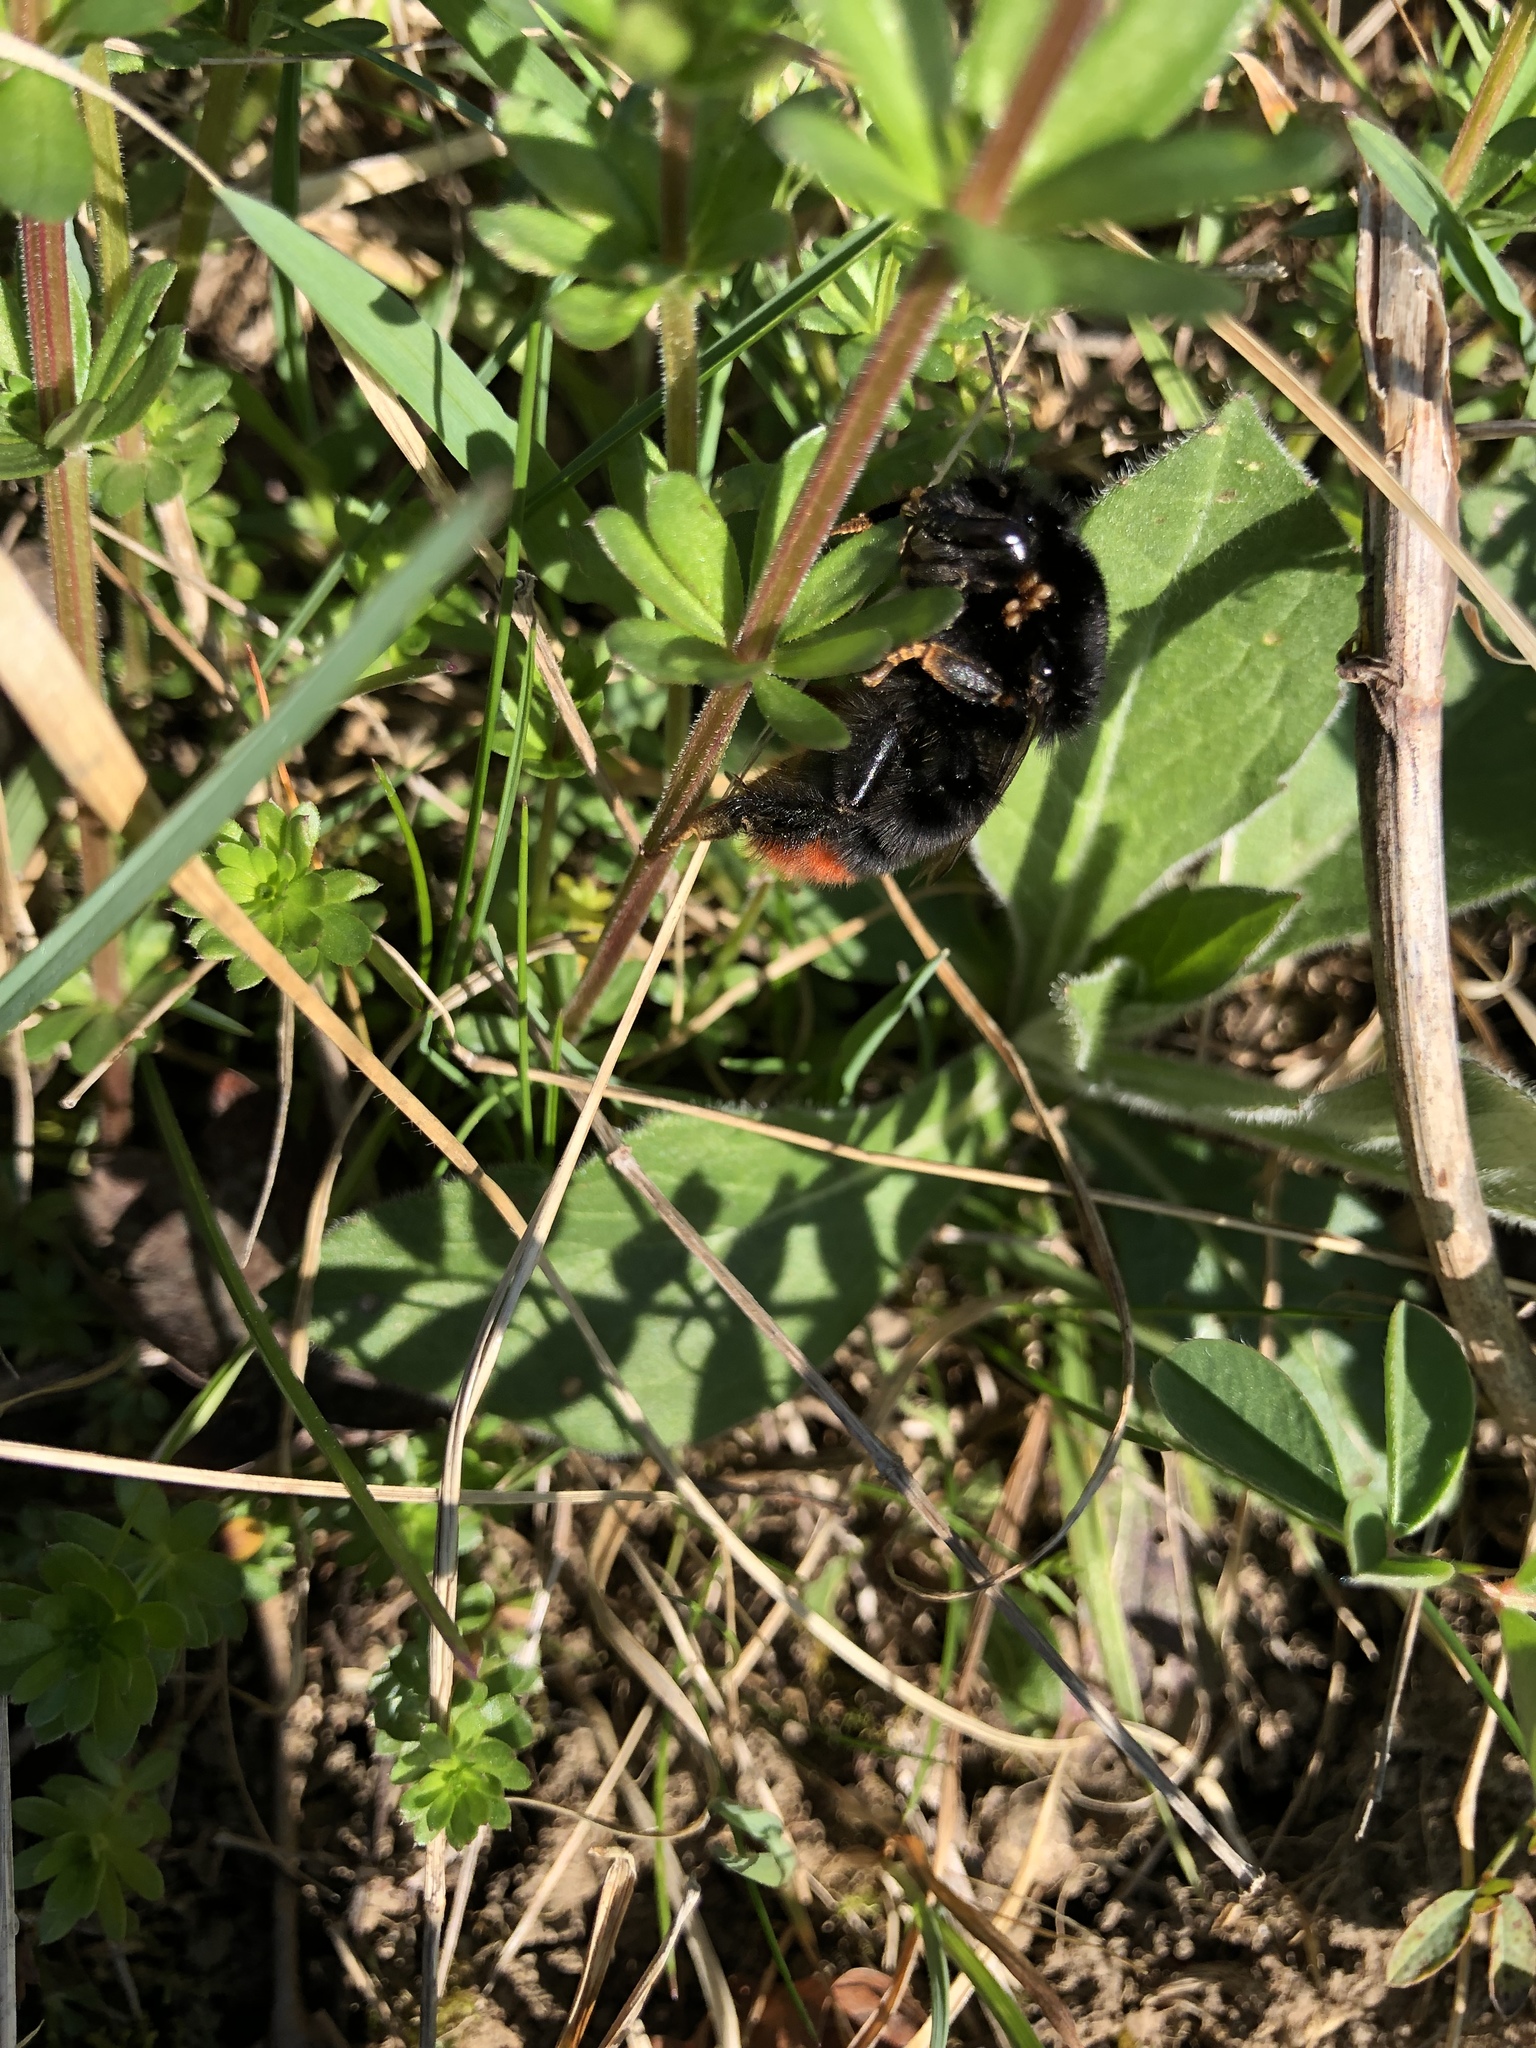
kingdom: Animalia
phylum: Arthropoda
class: Insecta
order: Hymenoptera
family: Apidae
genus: Bombus
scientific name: Bombus lapidarius
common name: Large red-tailed humble-bee
